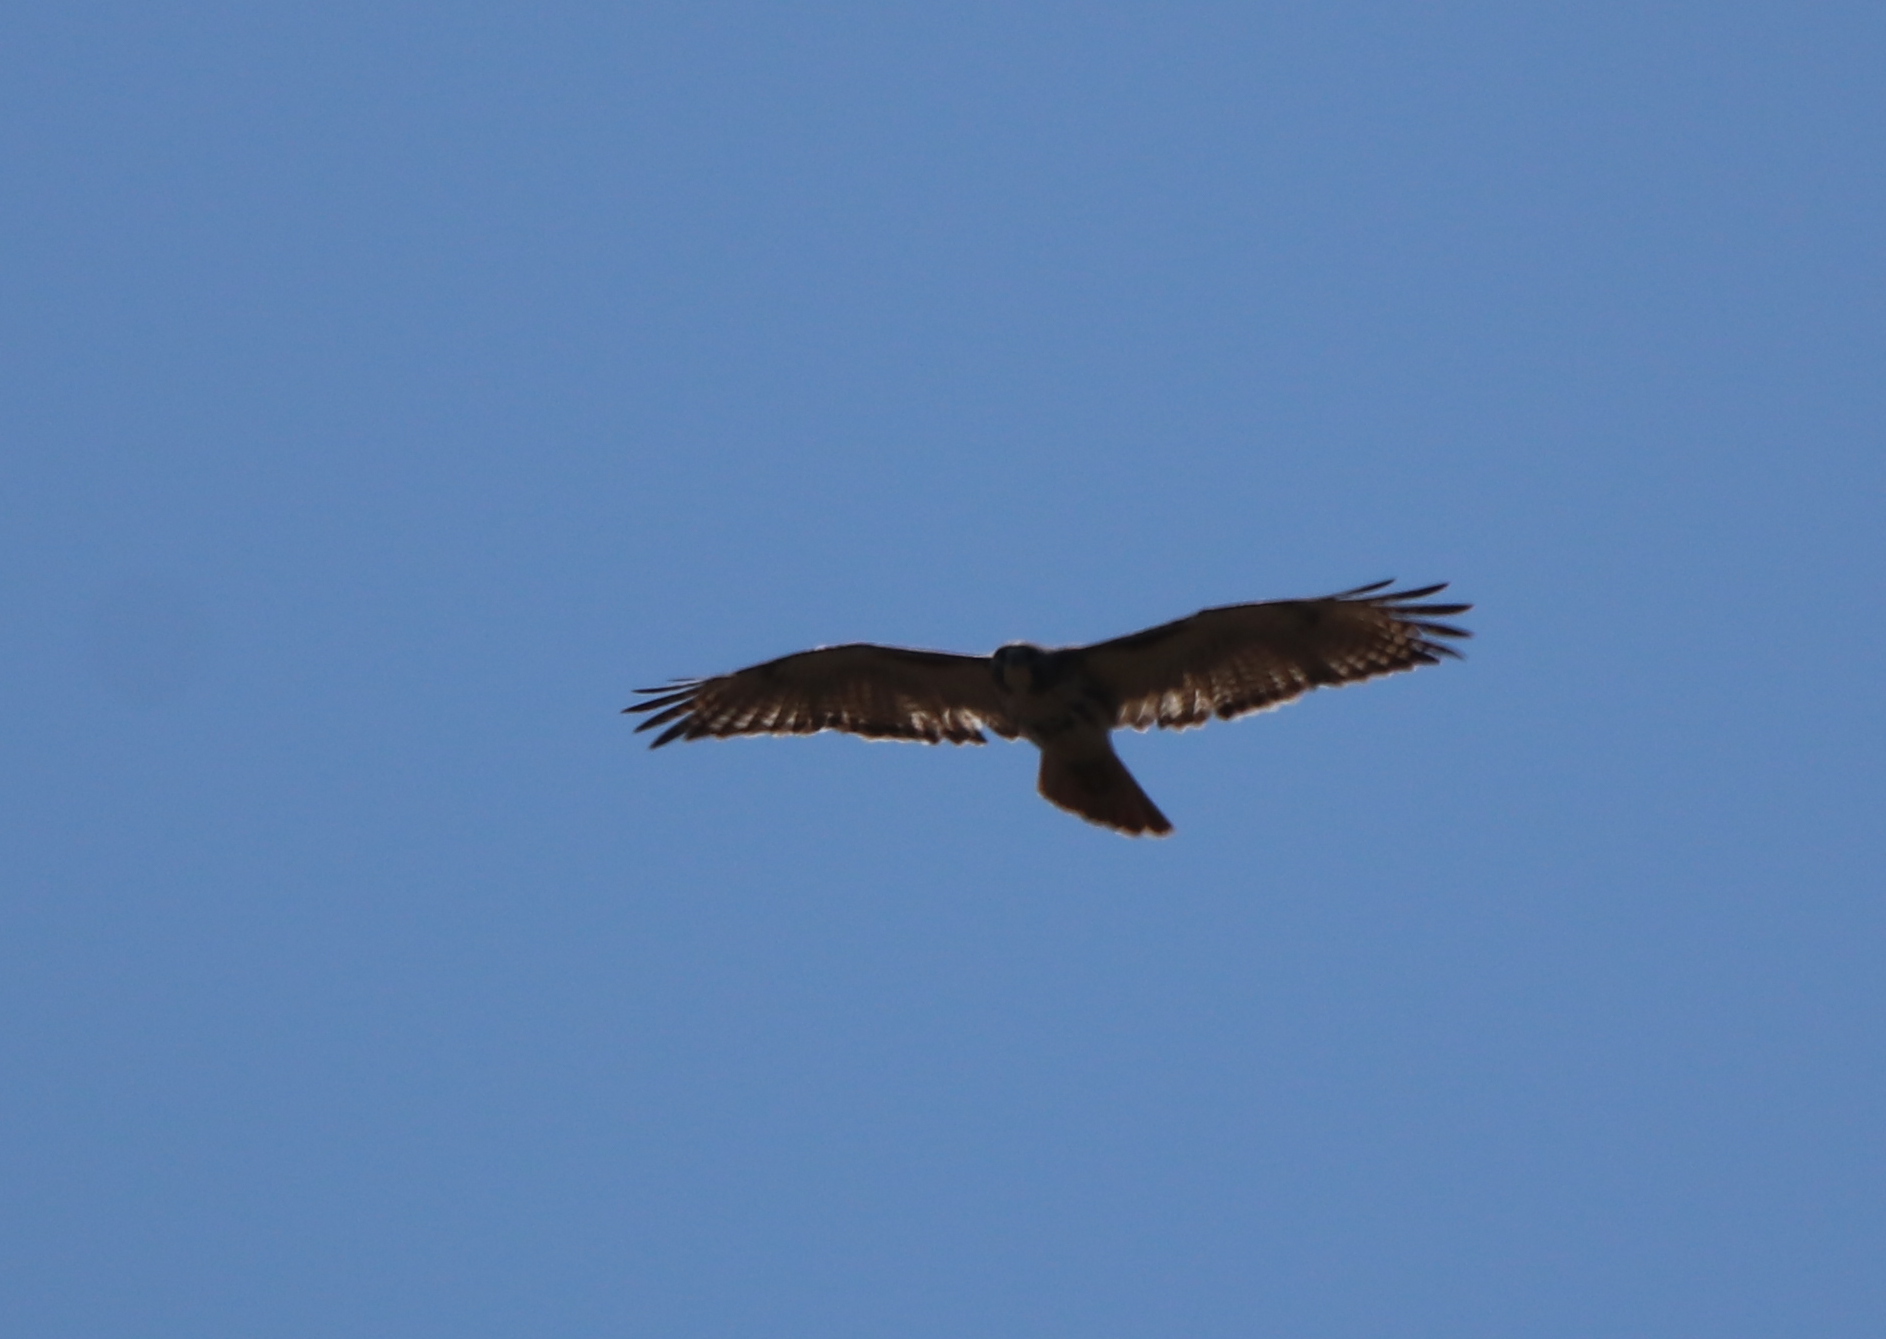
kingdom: Animalia
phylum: Chordata
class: Aves
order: Accipitriformes
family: Accipitridae
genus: Buteo
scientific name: Buteo jamaicensis
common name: Red-tailed hawk
